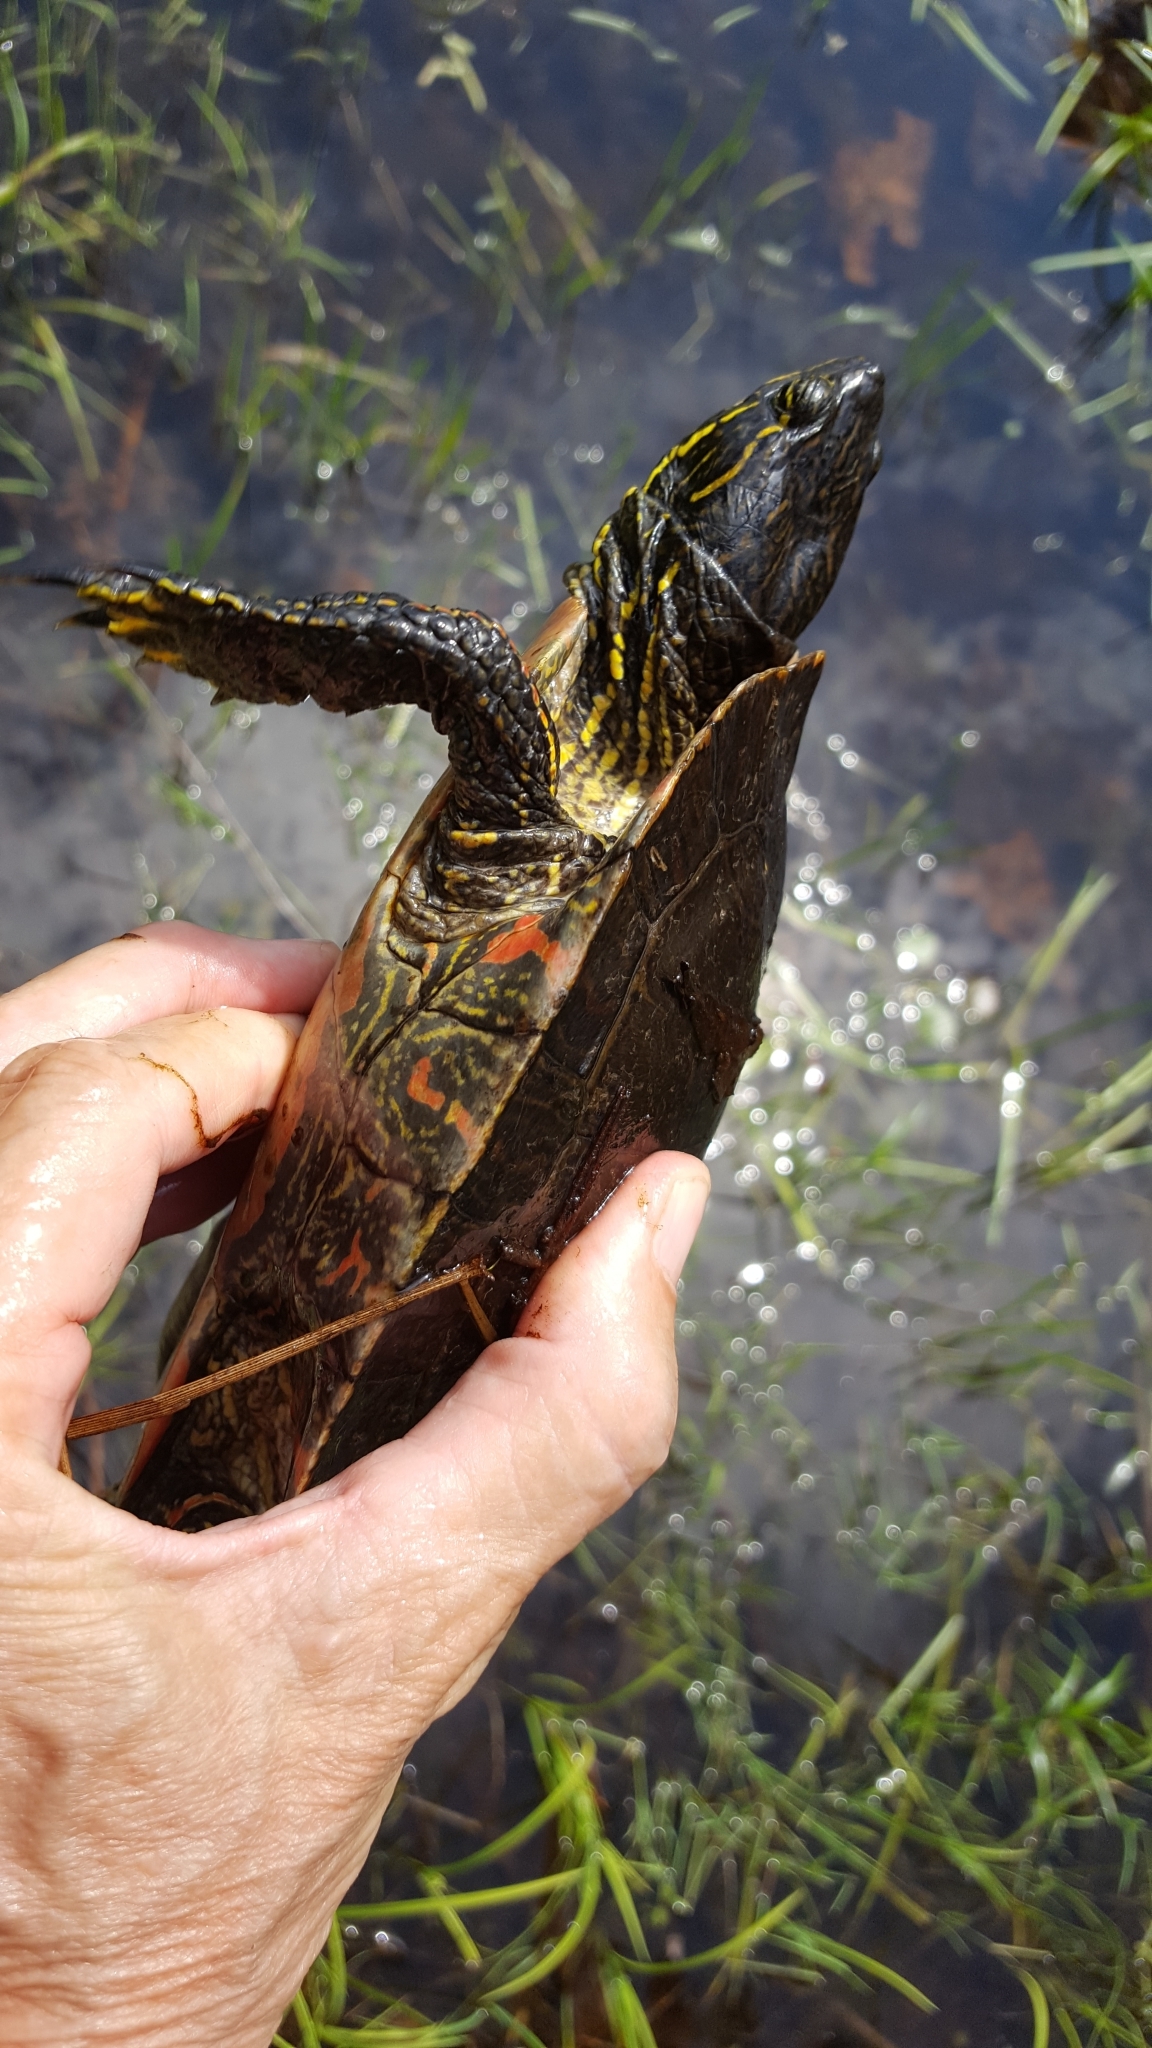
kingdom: Animalia
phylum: Chordata
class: Testudines
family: Emydidae
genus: Chrysemys
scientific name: Chrysemys picta
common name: Painted turtle
